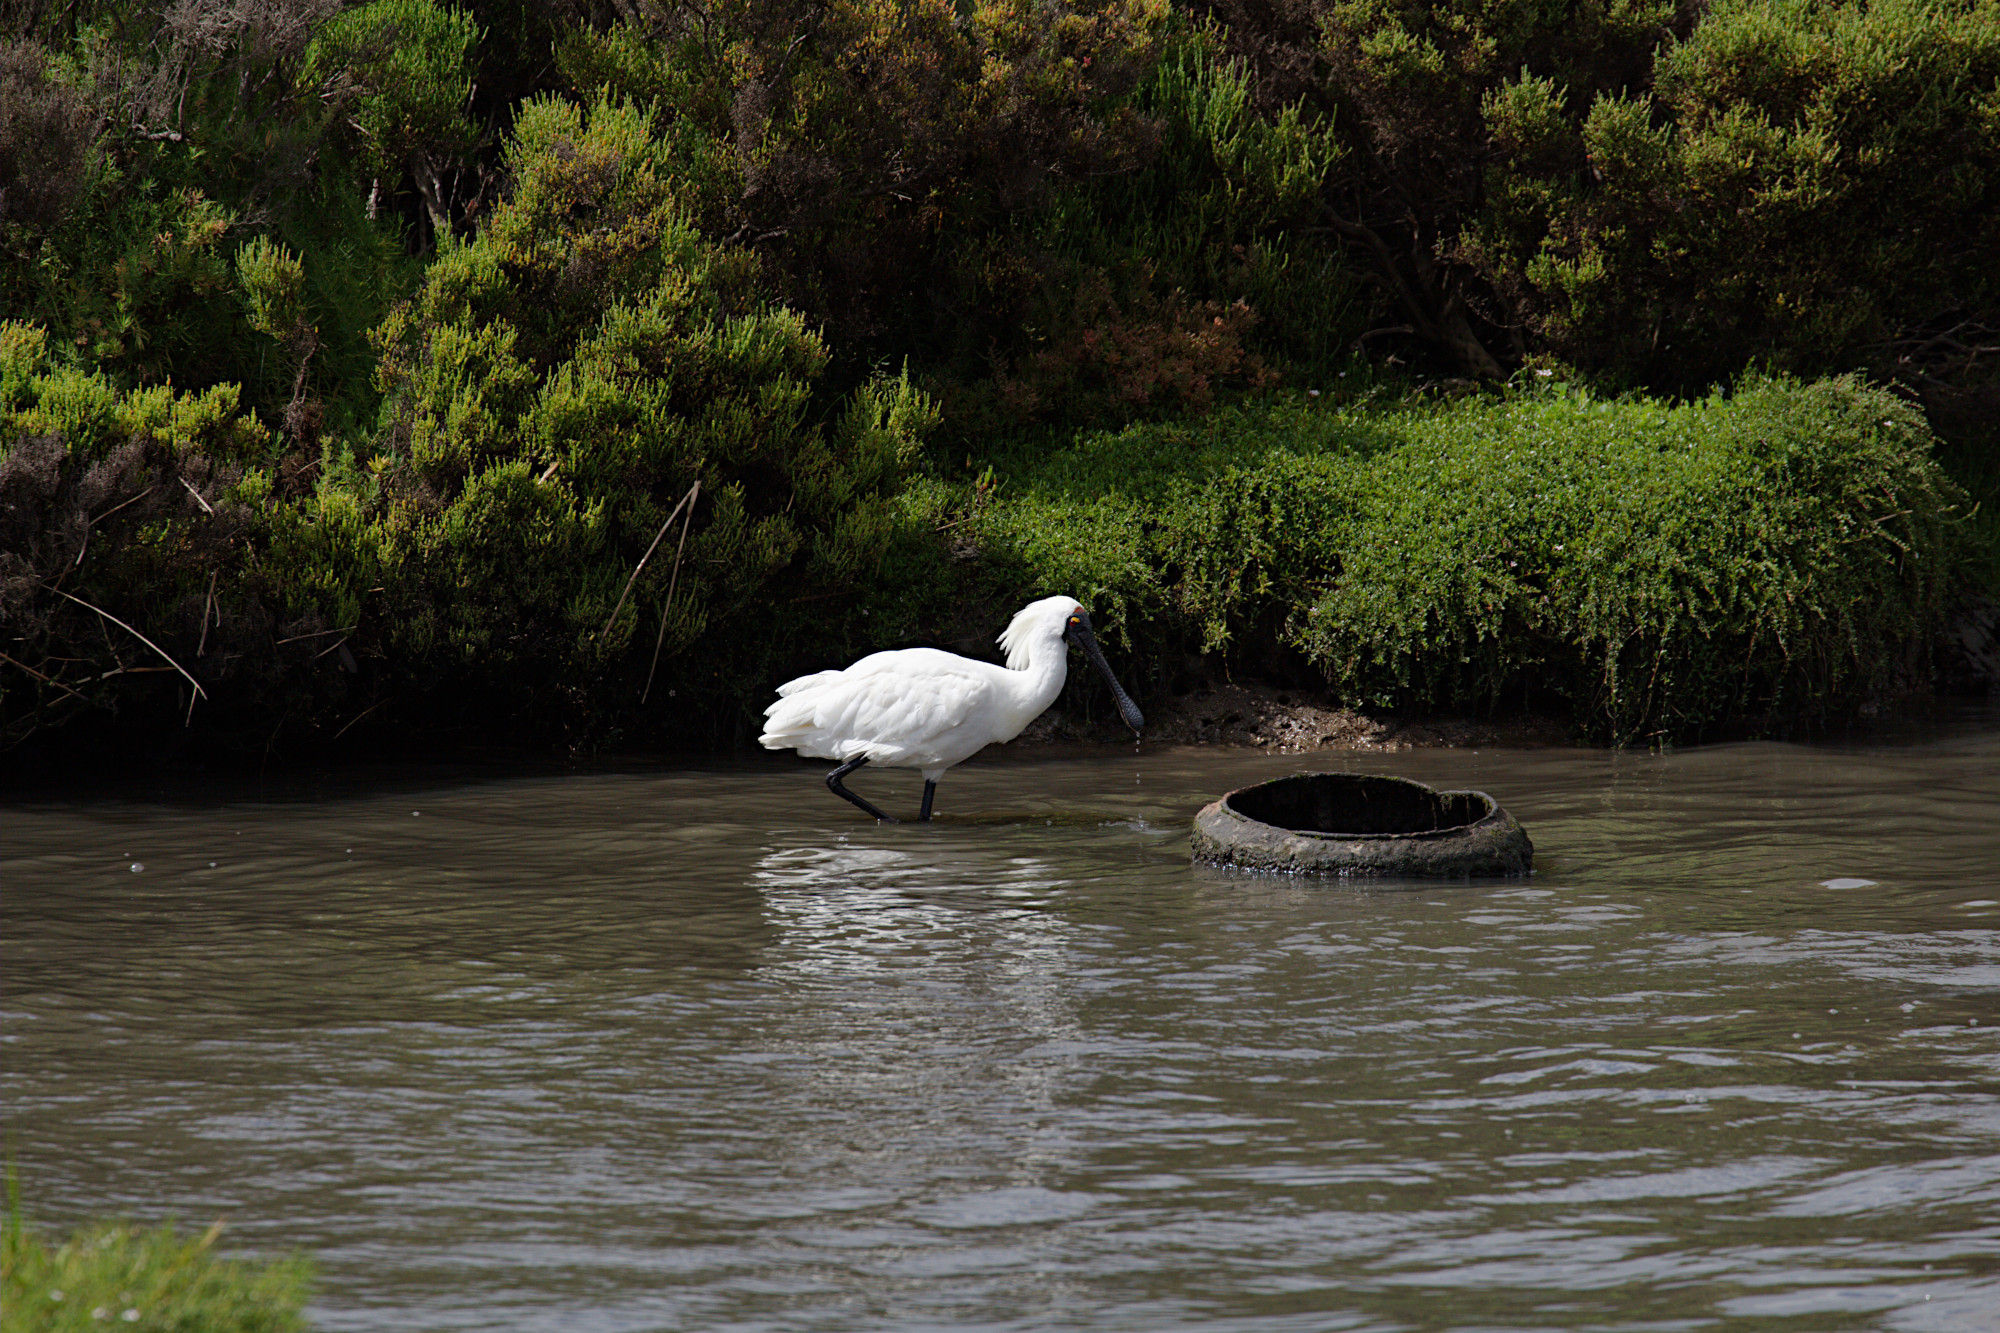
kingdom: Animalia
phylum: Chordata
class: Aves
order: Pelecaniformes
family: Threskiornithidae
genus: Platalea
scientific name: Platalea regia
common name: Royal spoonbill
